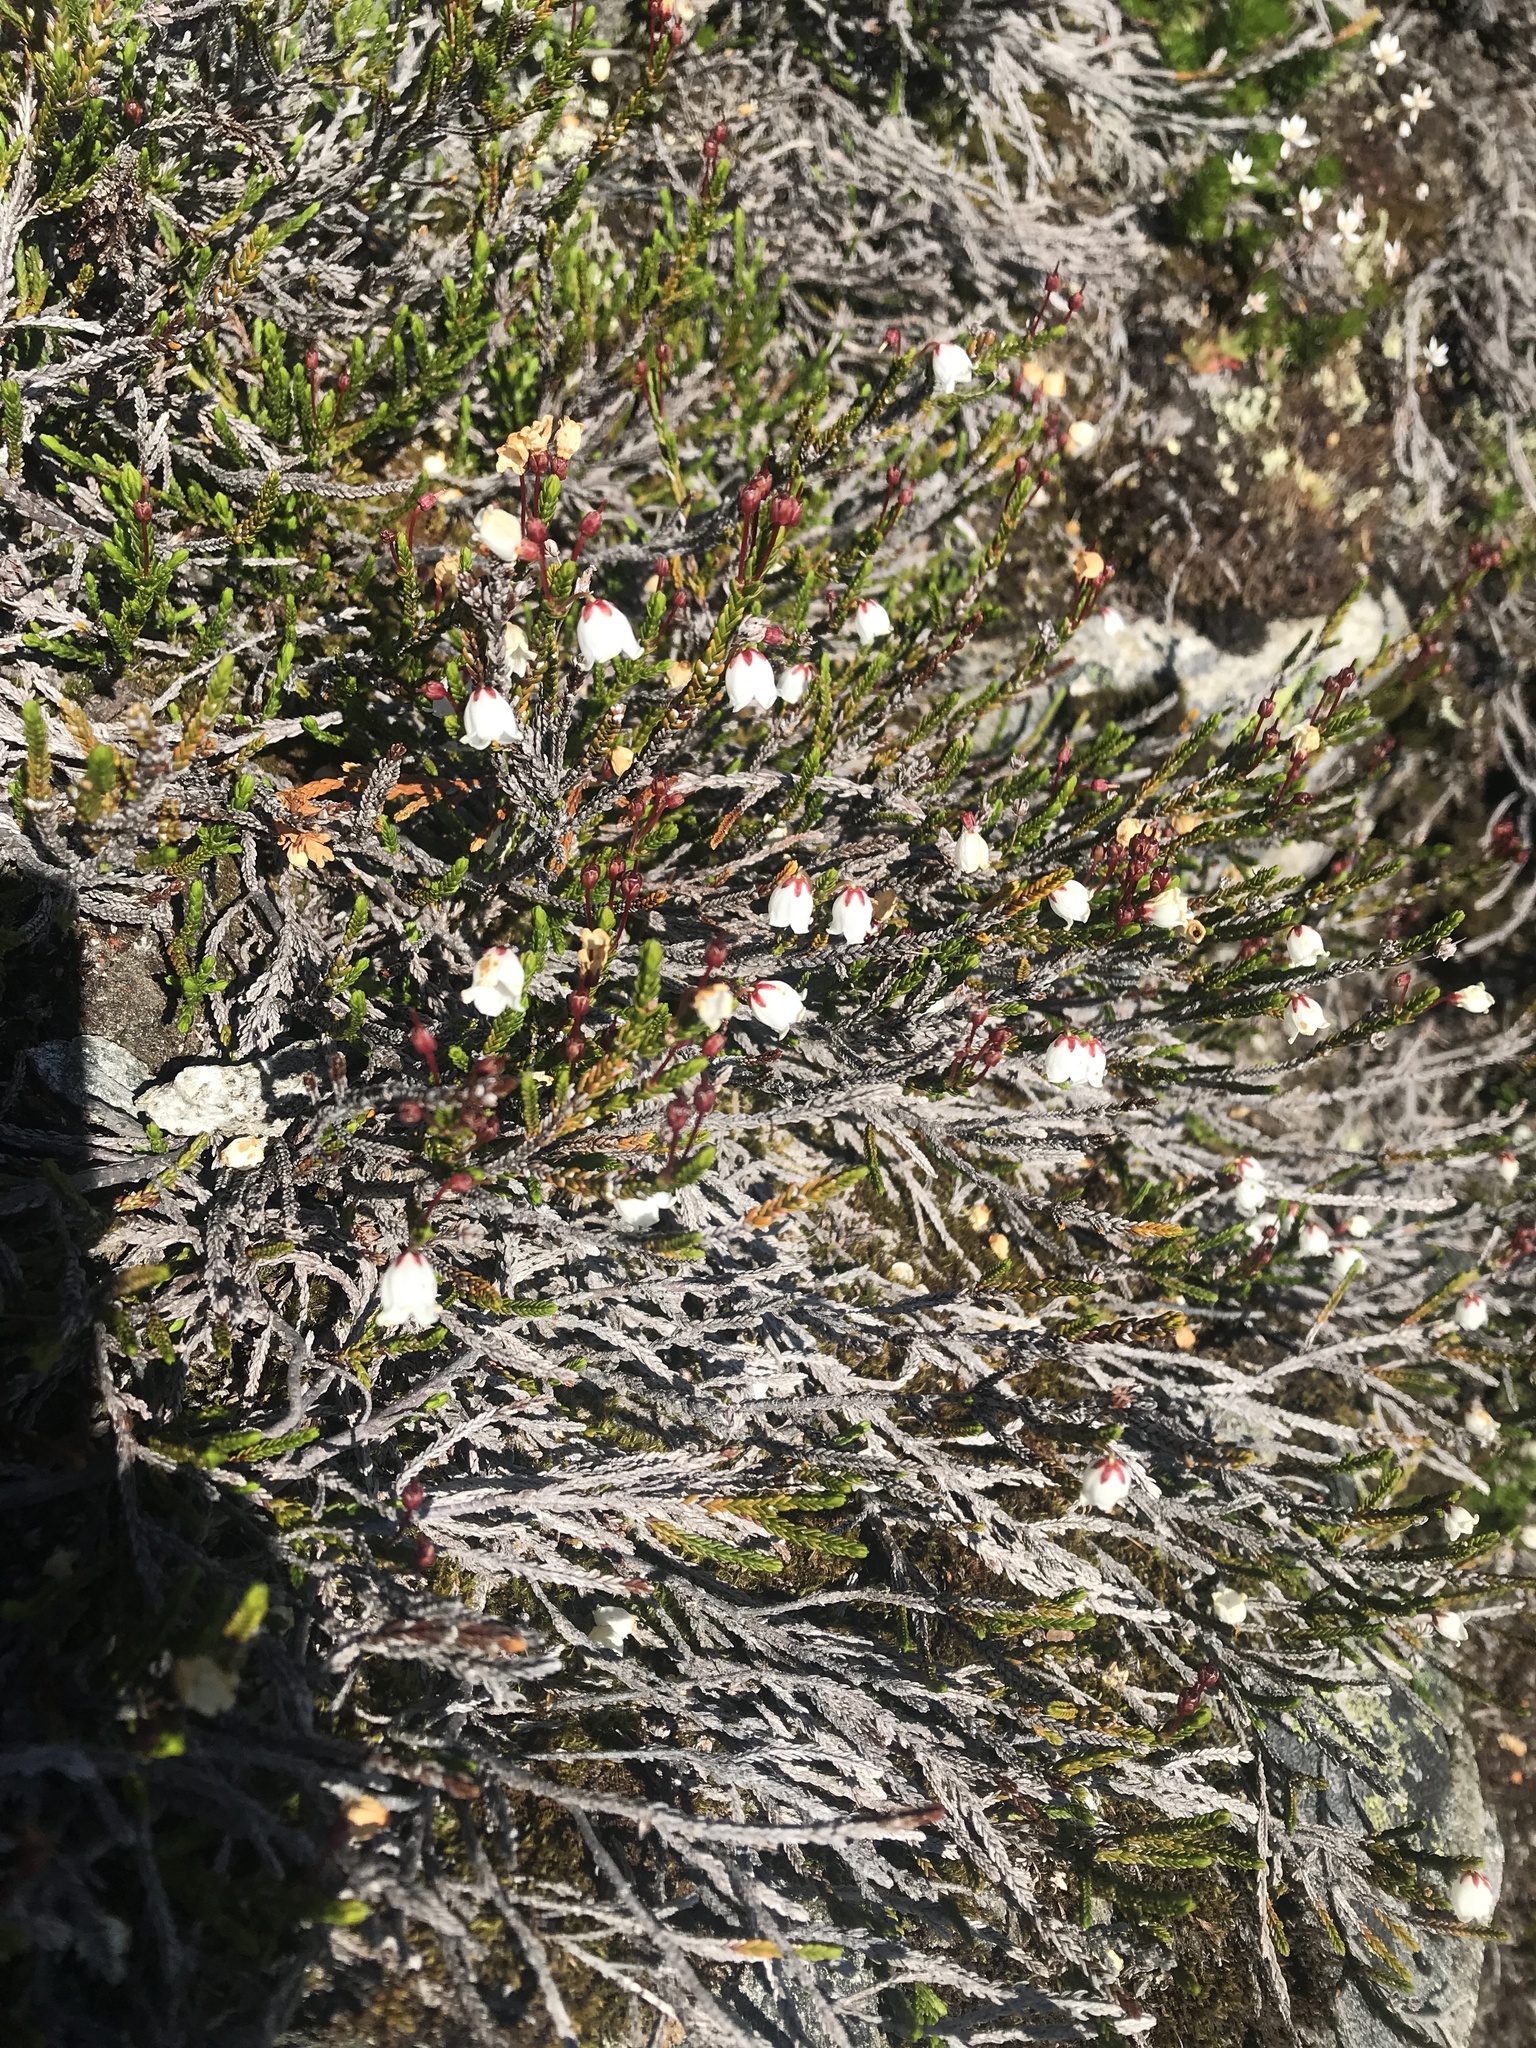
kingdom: Plantae
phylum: Tracheophyta
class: Magnoliopsida
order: Ericales
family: Ericaceae
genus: Cassiope
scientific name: Cassiope mertensiana
